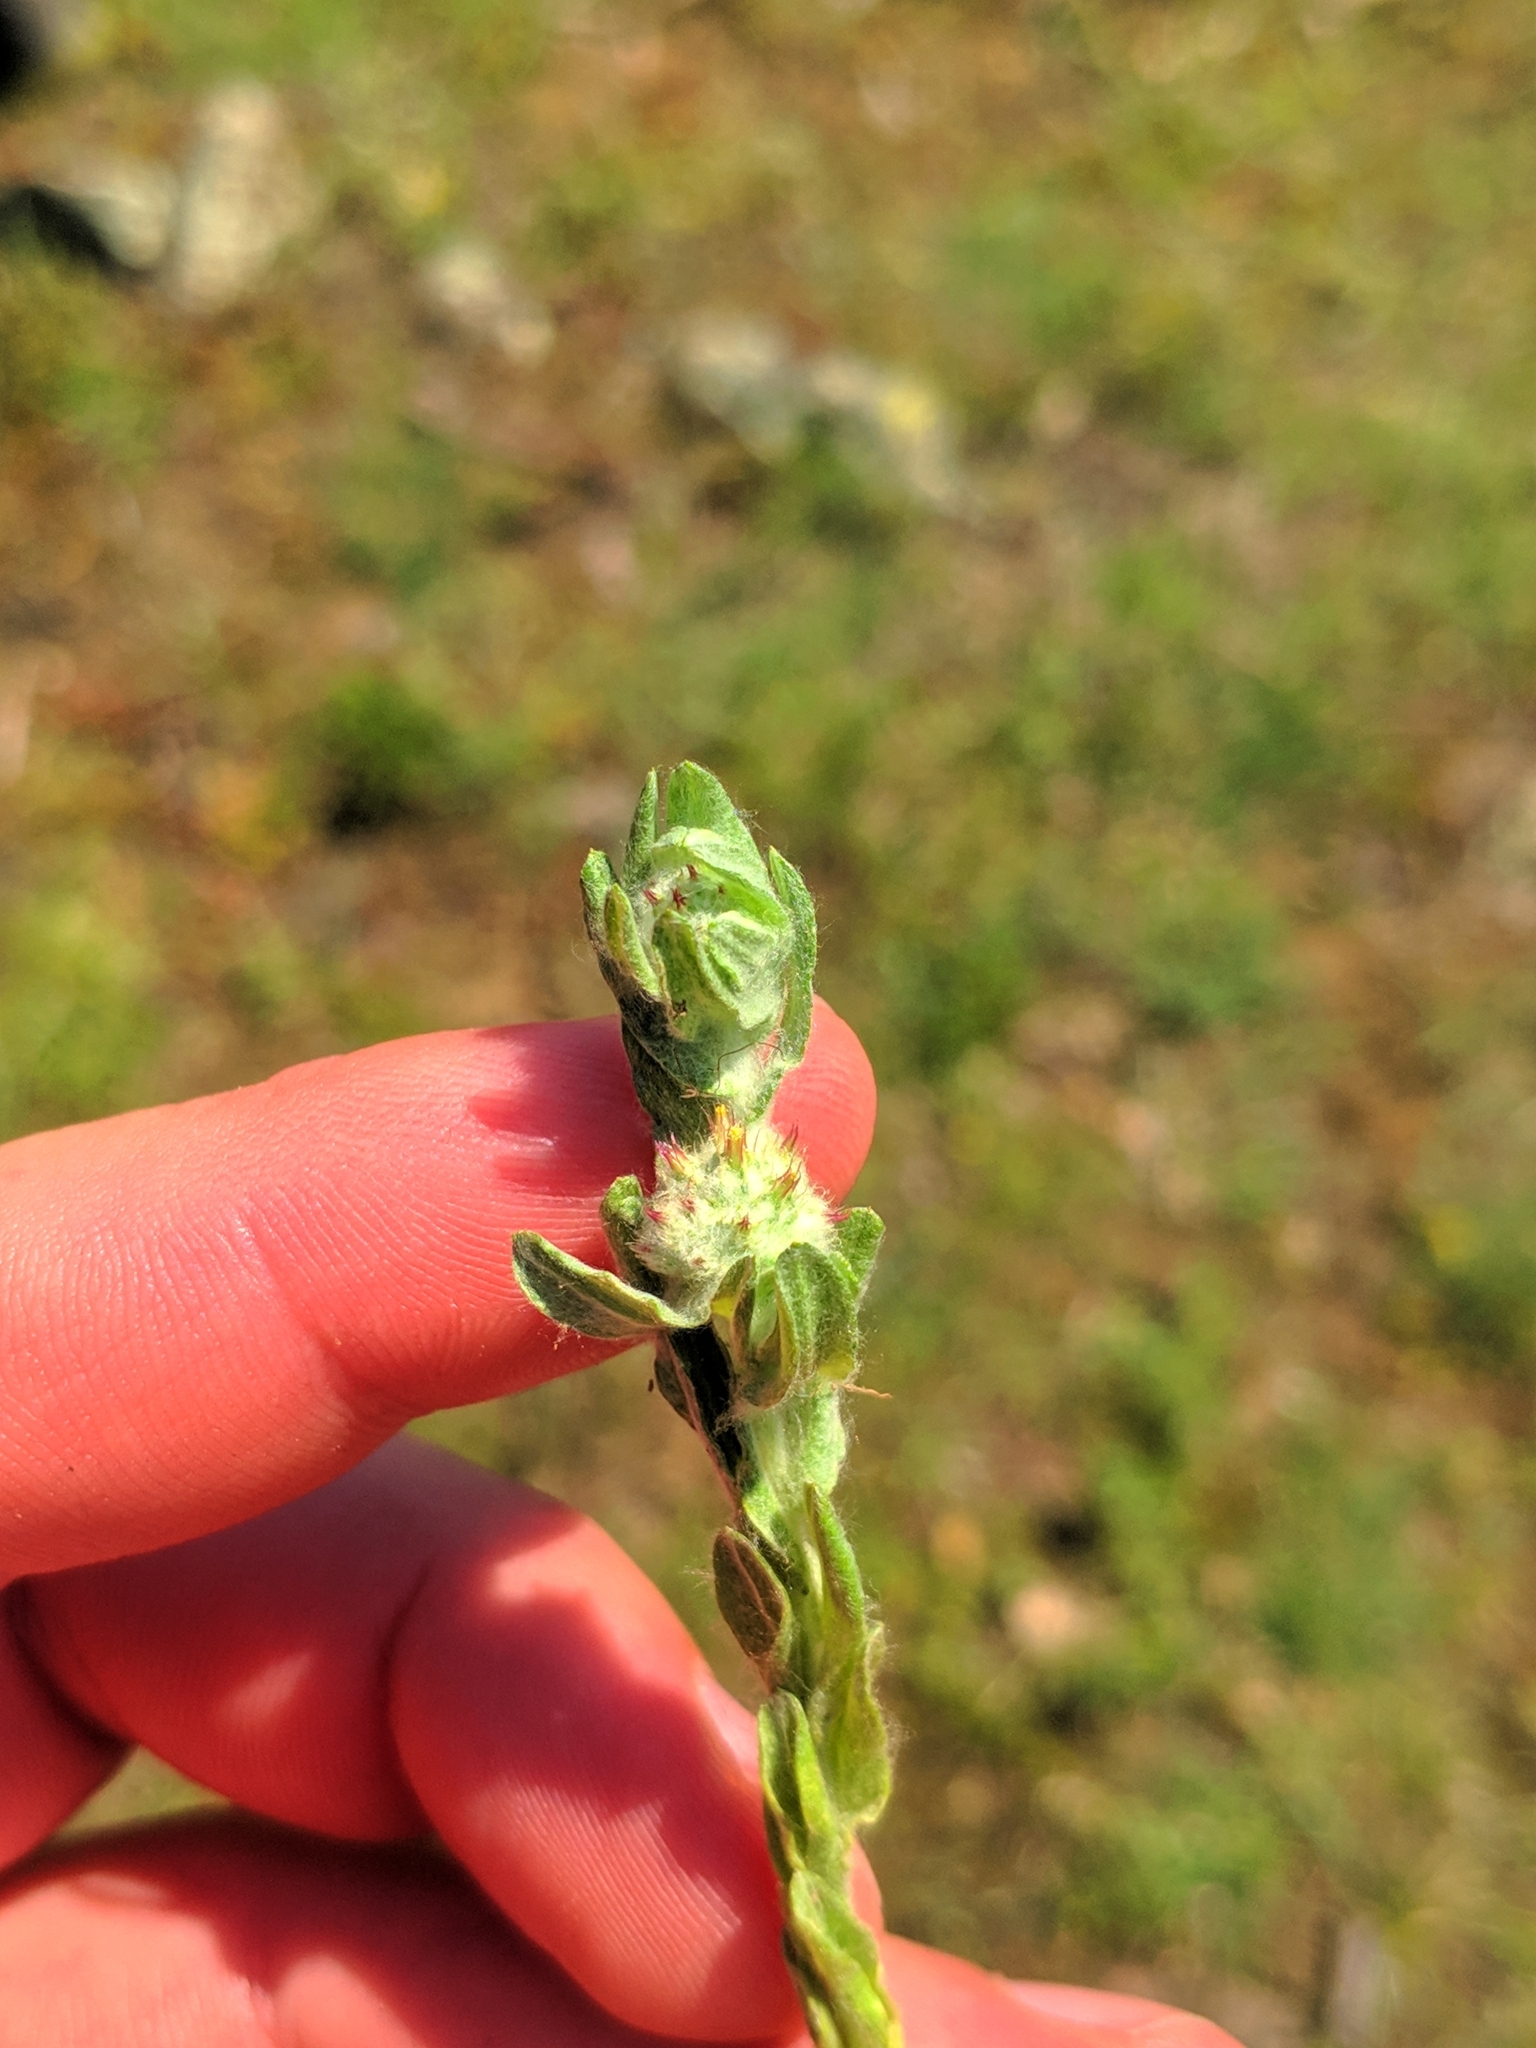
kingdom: Plantae
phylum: Tracheophyta
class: Magnoliopsida
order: Asterales
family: Asteraceae
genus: Filago
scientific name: Filago lutescens
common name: Red-tipped cudweed
